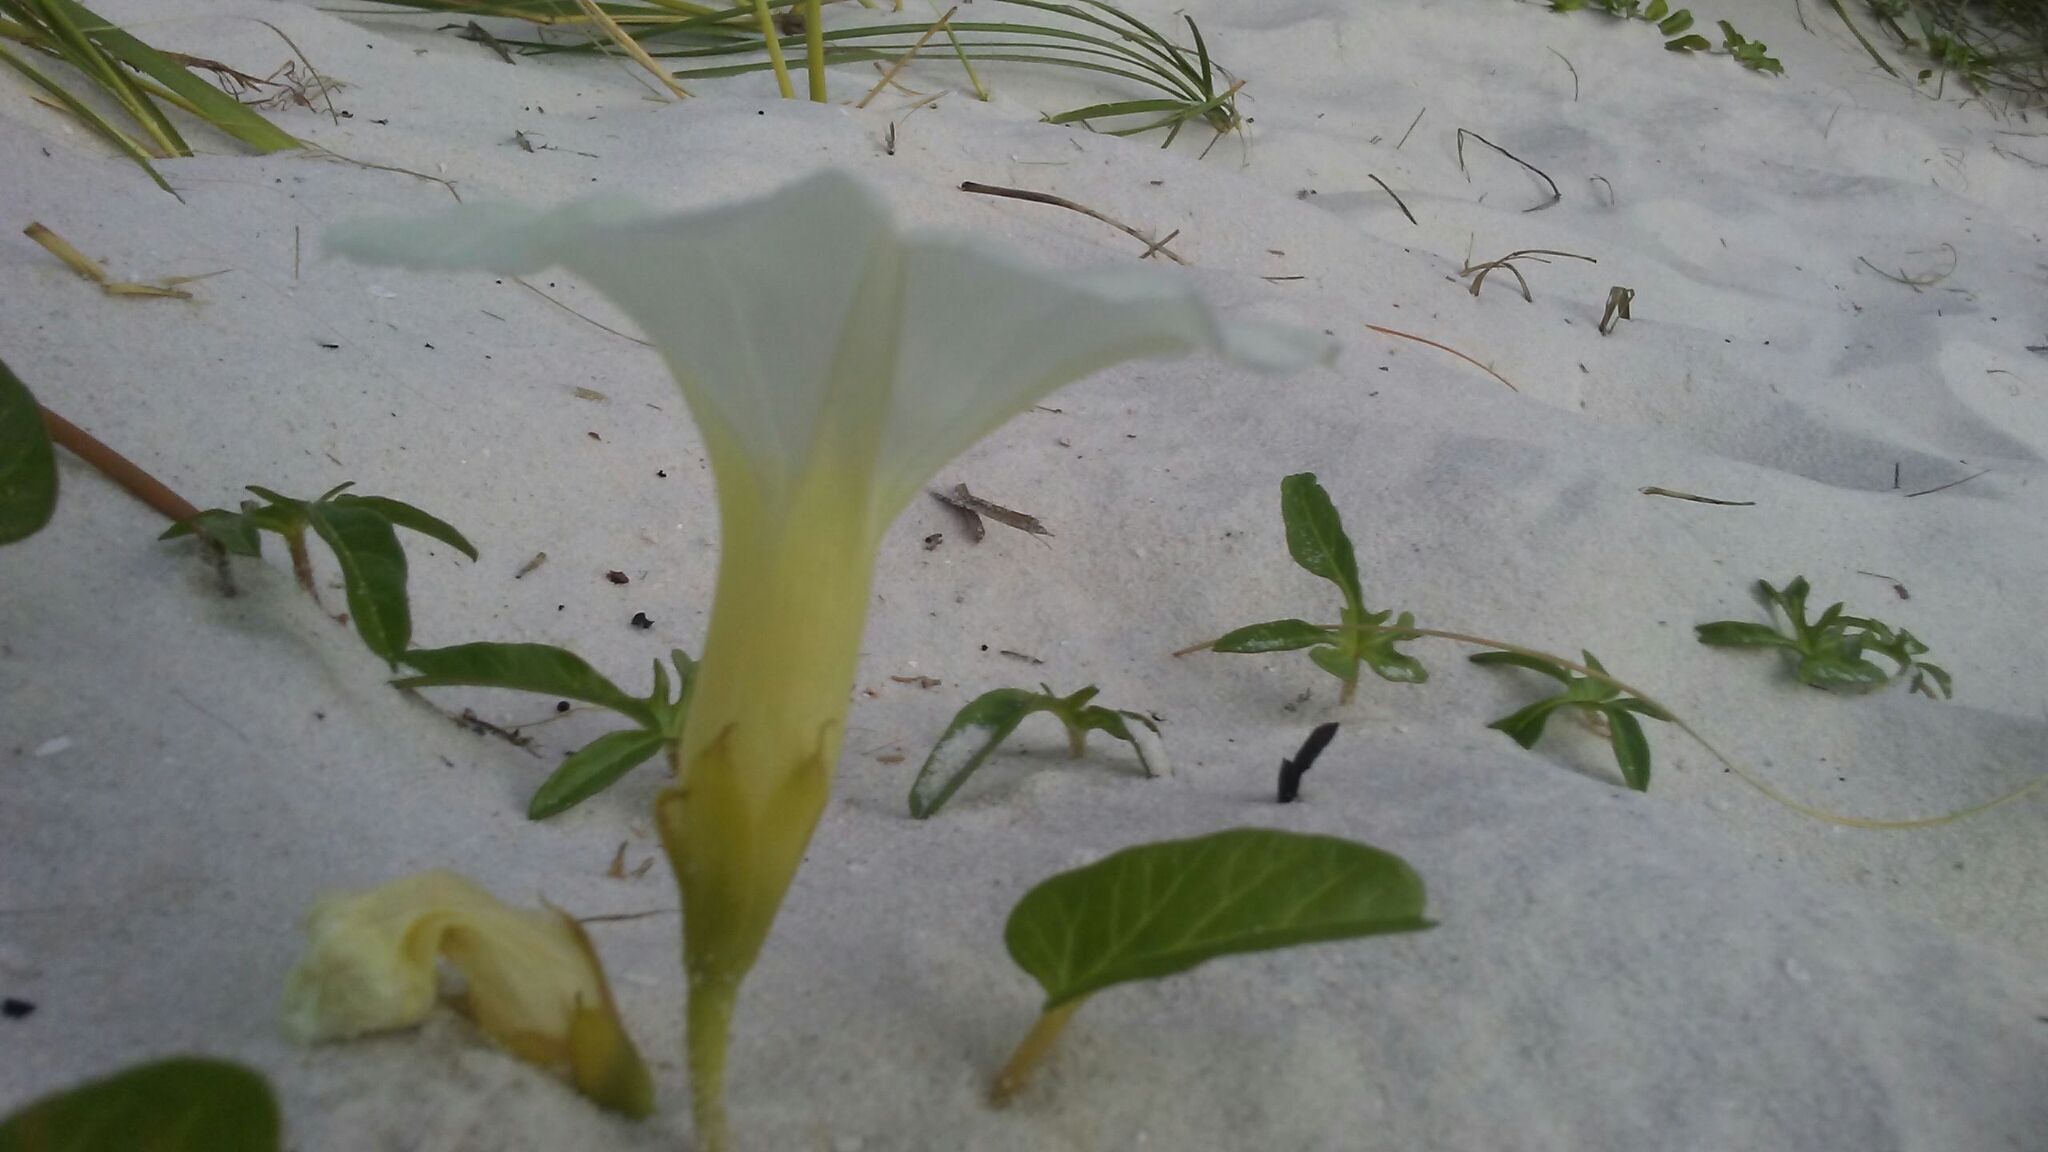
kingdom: Plantae
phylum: Tracheophyta
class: Magnoliopsida
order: Solanales
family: Convolvulaceae
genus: Ipomoea
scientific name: Ipomoea imperati
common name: Fiddle-leaf morning-glory
